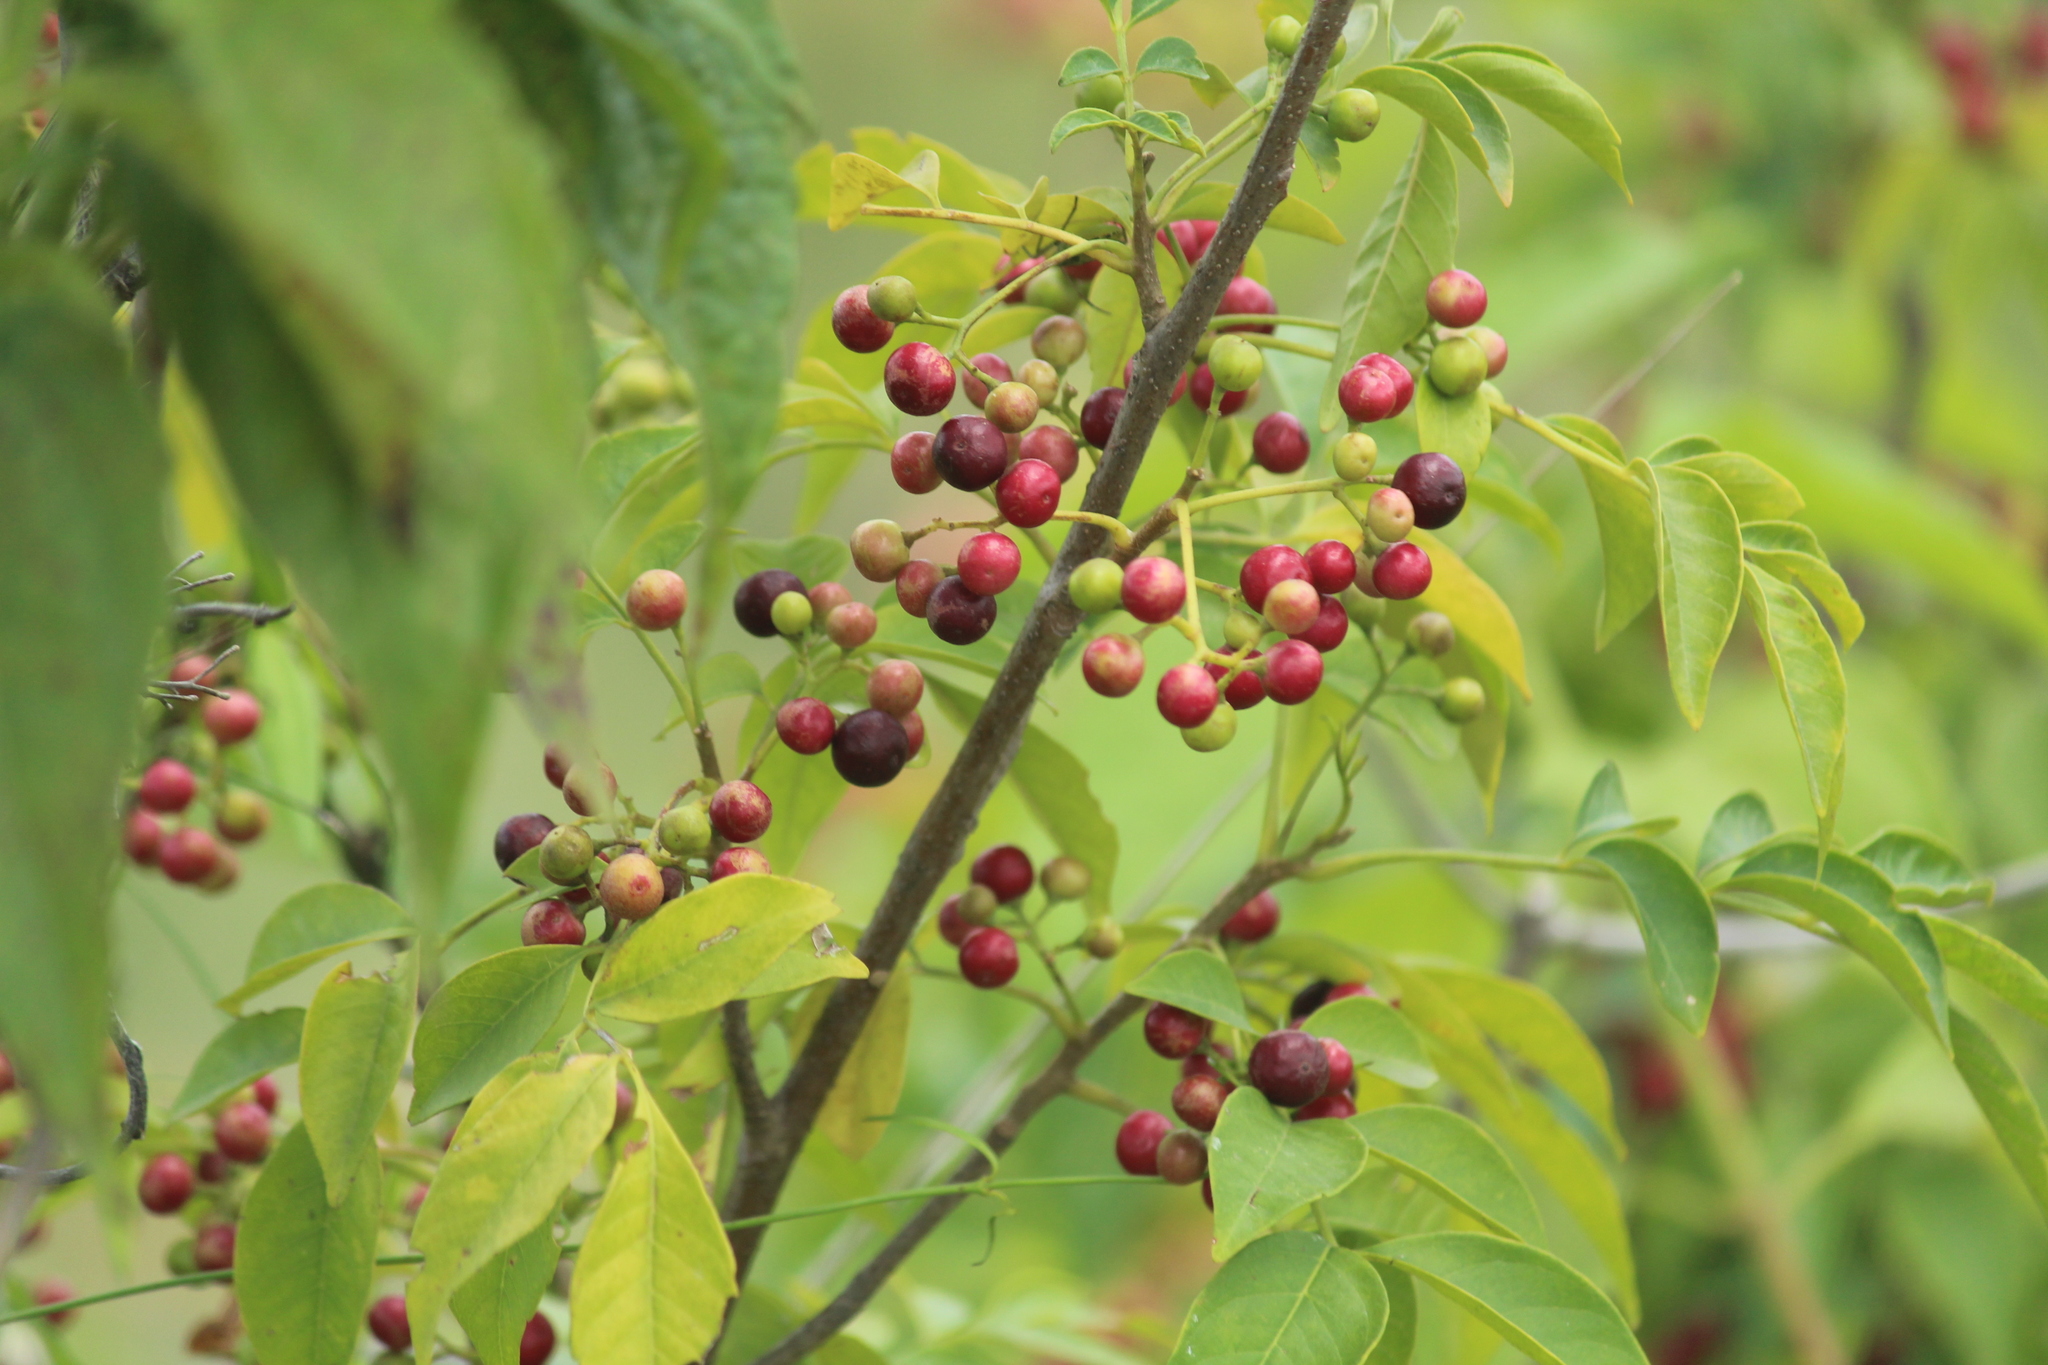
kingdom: Plantae
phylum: Tracheophyta
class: Magnoliopsida
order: Sapindales
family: Meliaceae
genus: Cipadessa
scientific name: Cipadessa baccifera
